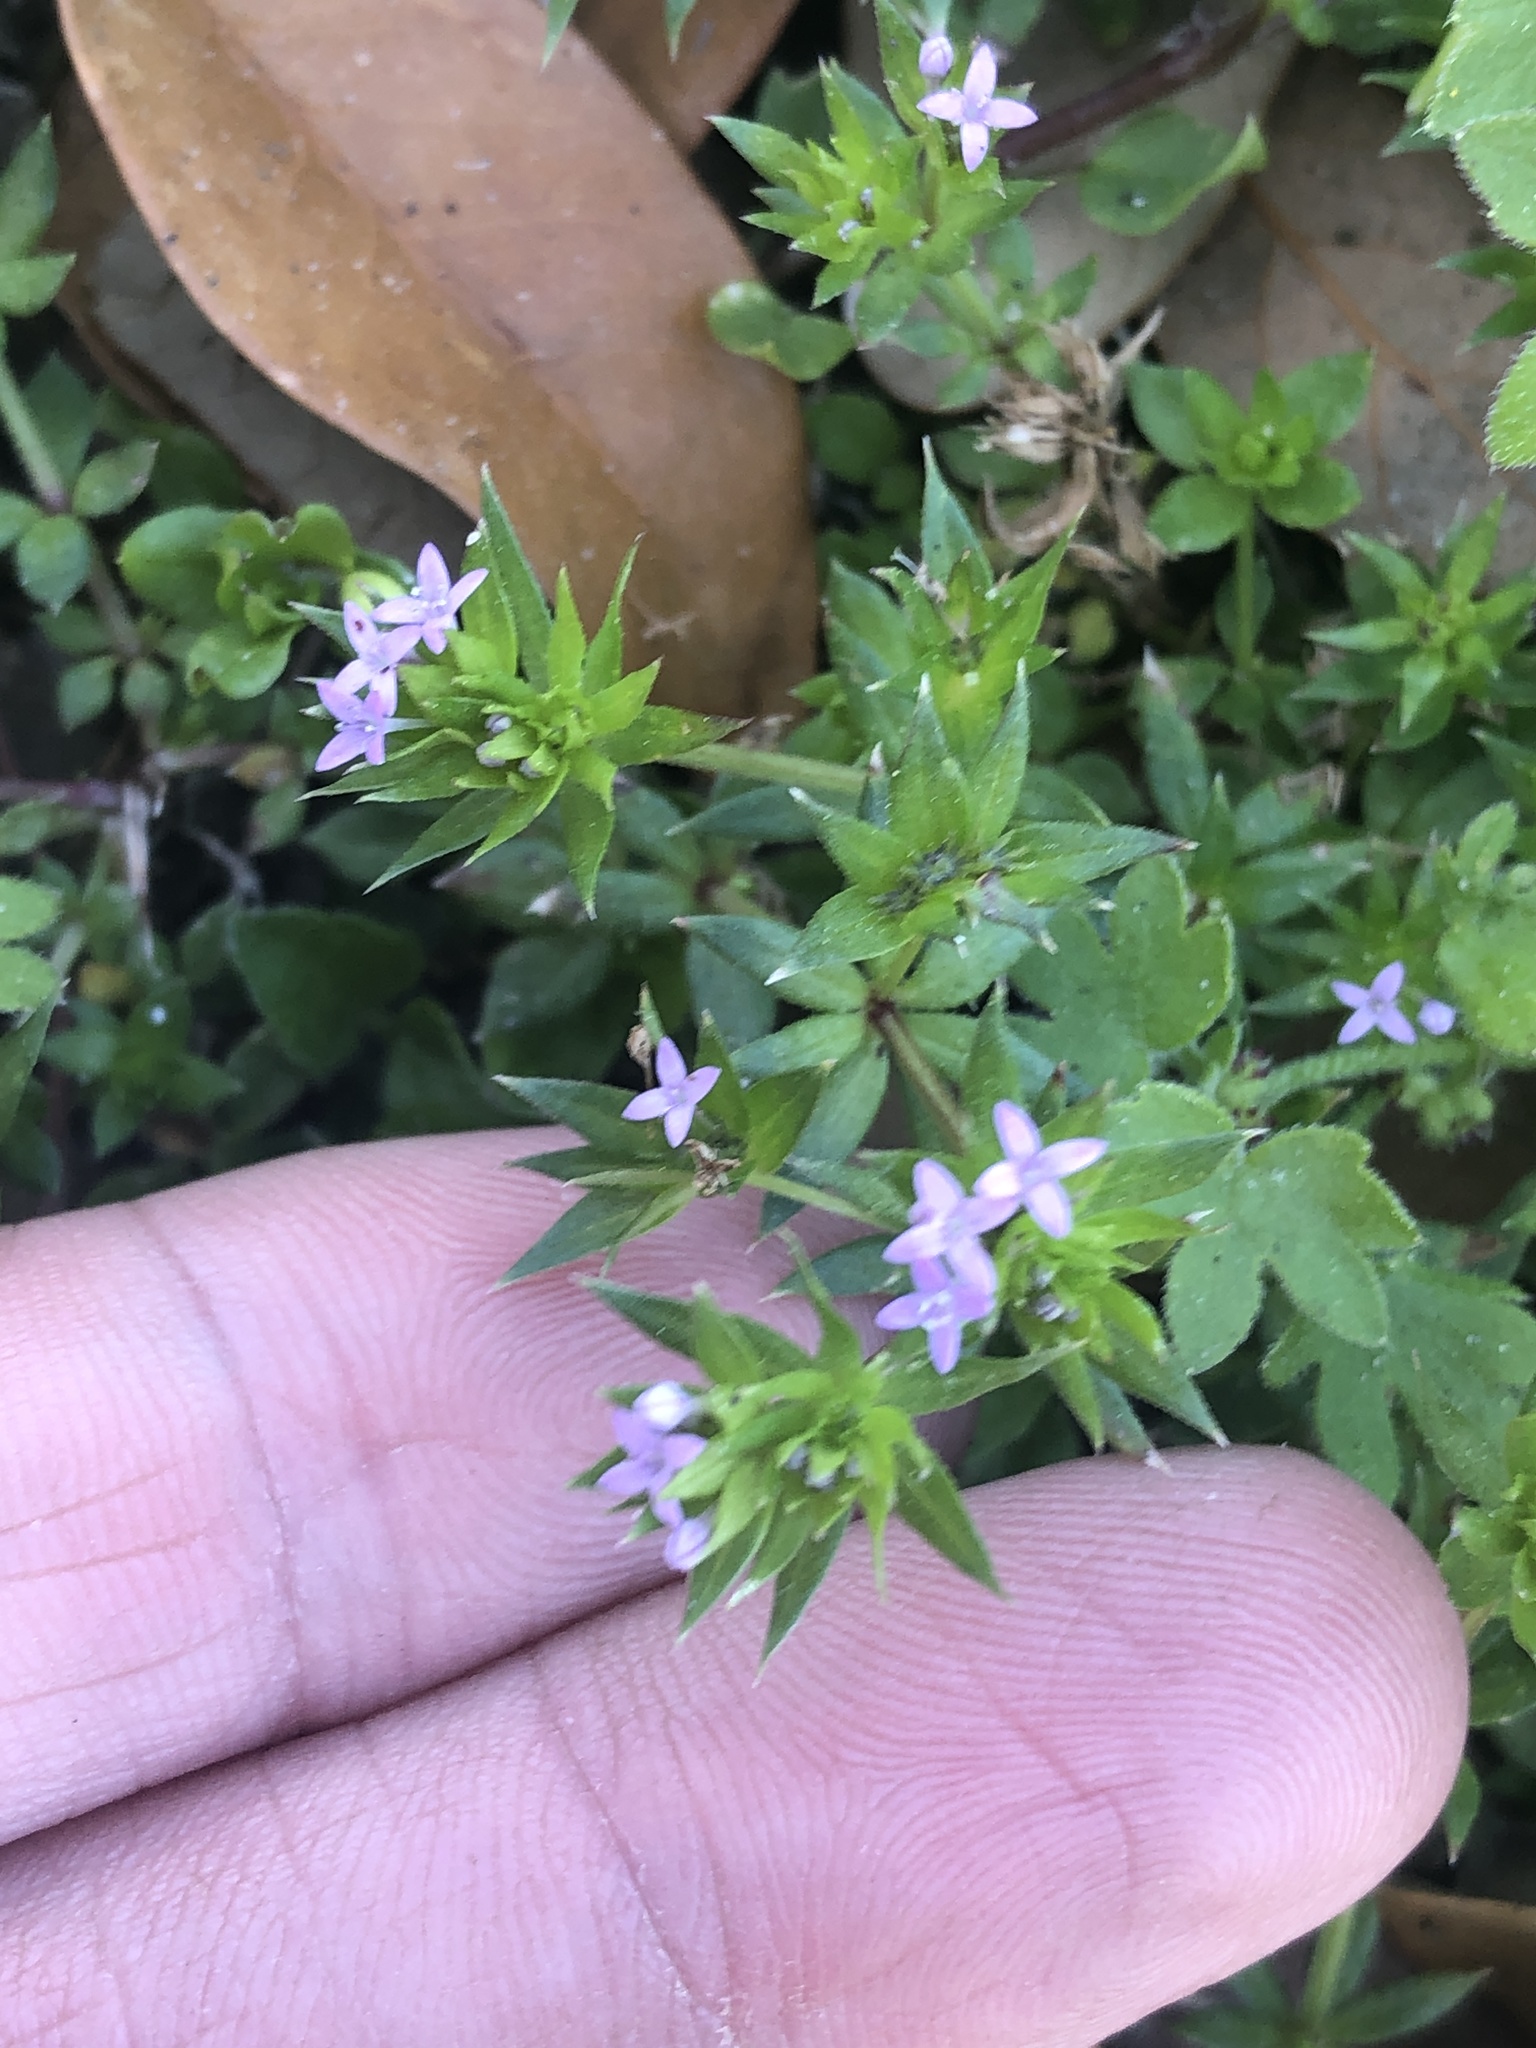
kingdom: Plantae
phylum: Tracheophyta
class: Magnoliopsida
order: Gentianales
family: Rubiaceae
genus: Sherardia
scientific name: Sherardia arvensis
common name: Field madder
